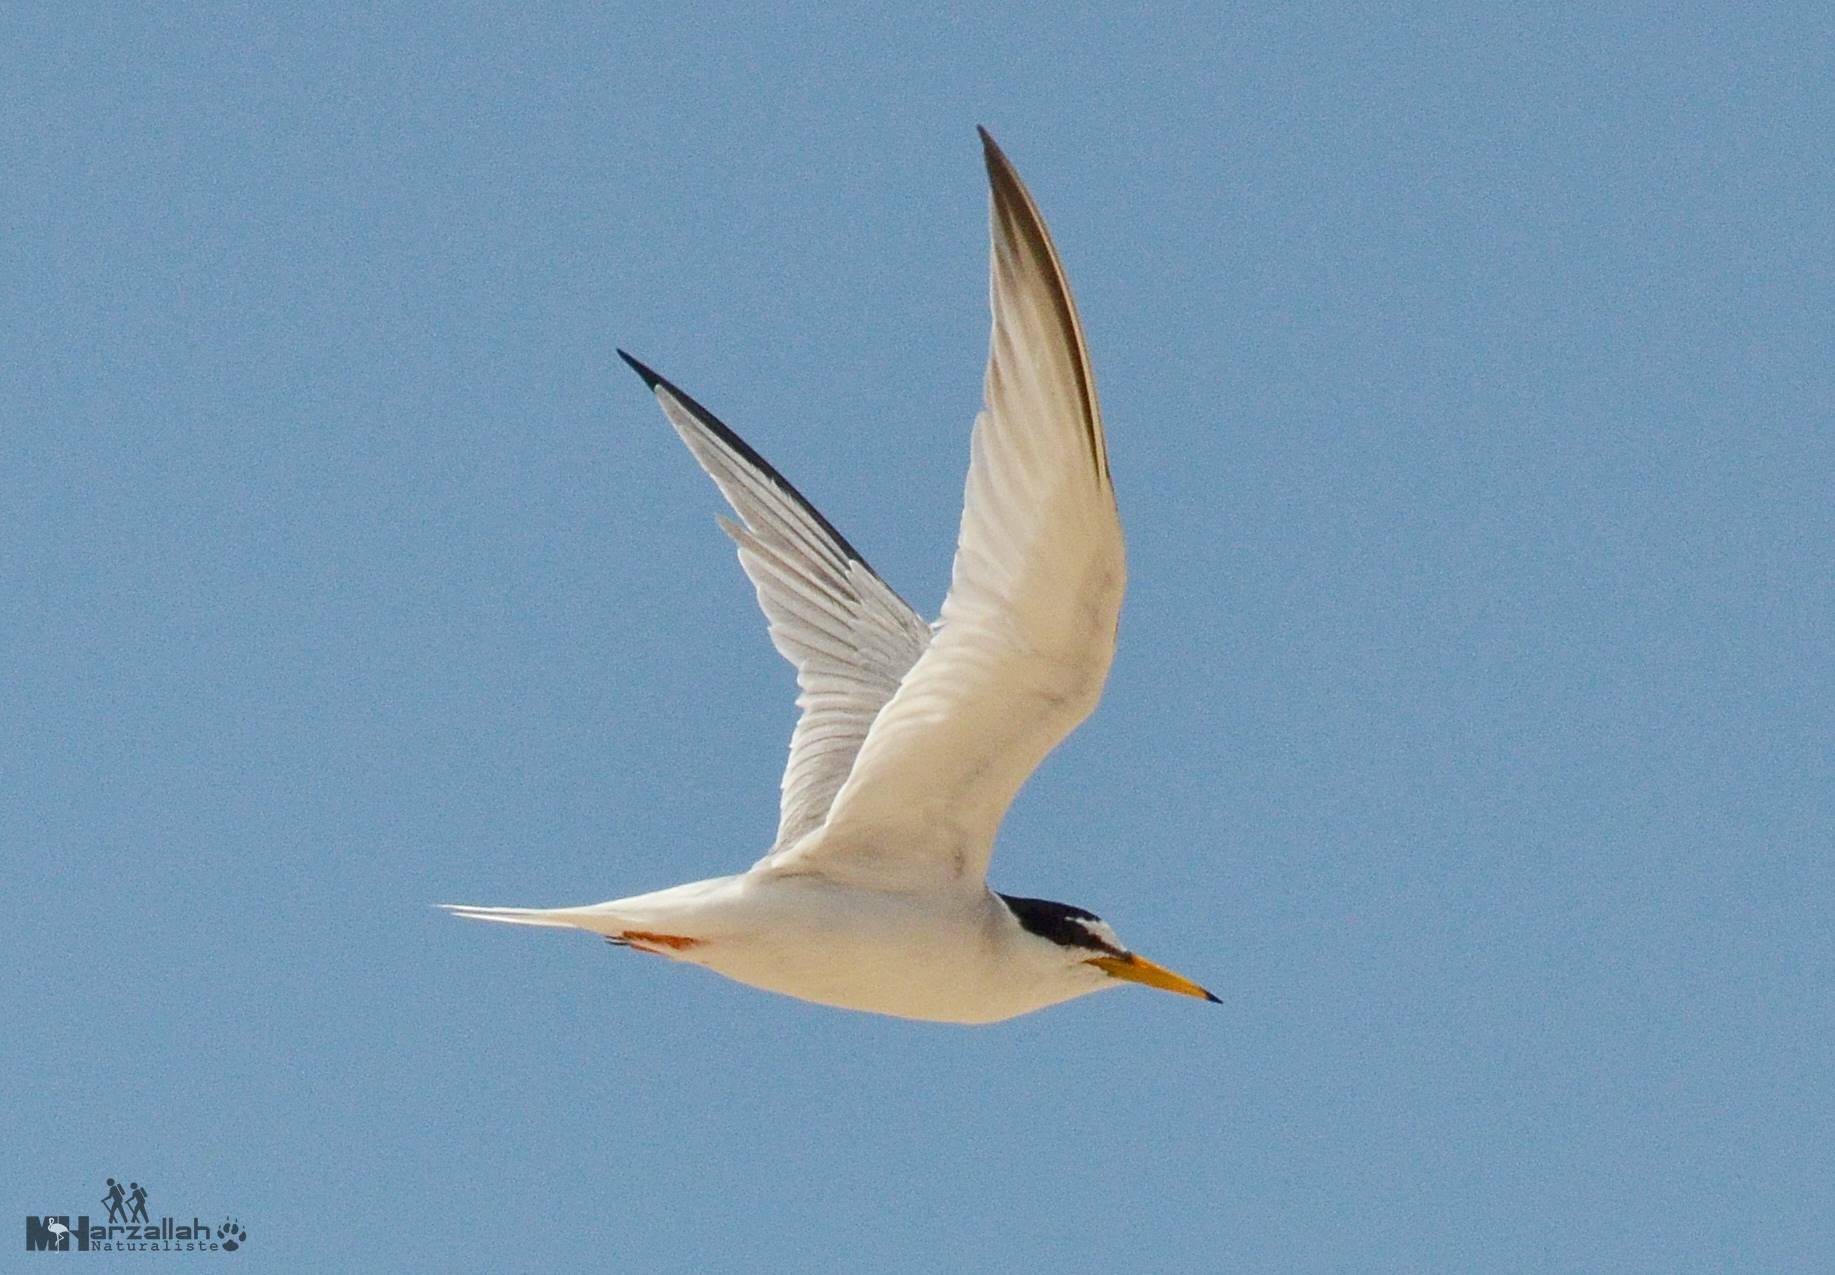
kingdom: Animalia
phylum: Chordata
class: Aves
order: Charadriiformes
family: Laridae
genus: Sternula
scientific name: Sternula albifrons
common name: Little tern
